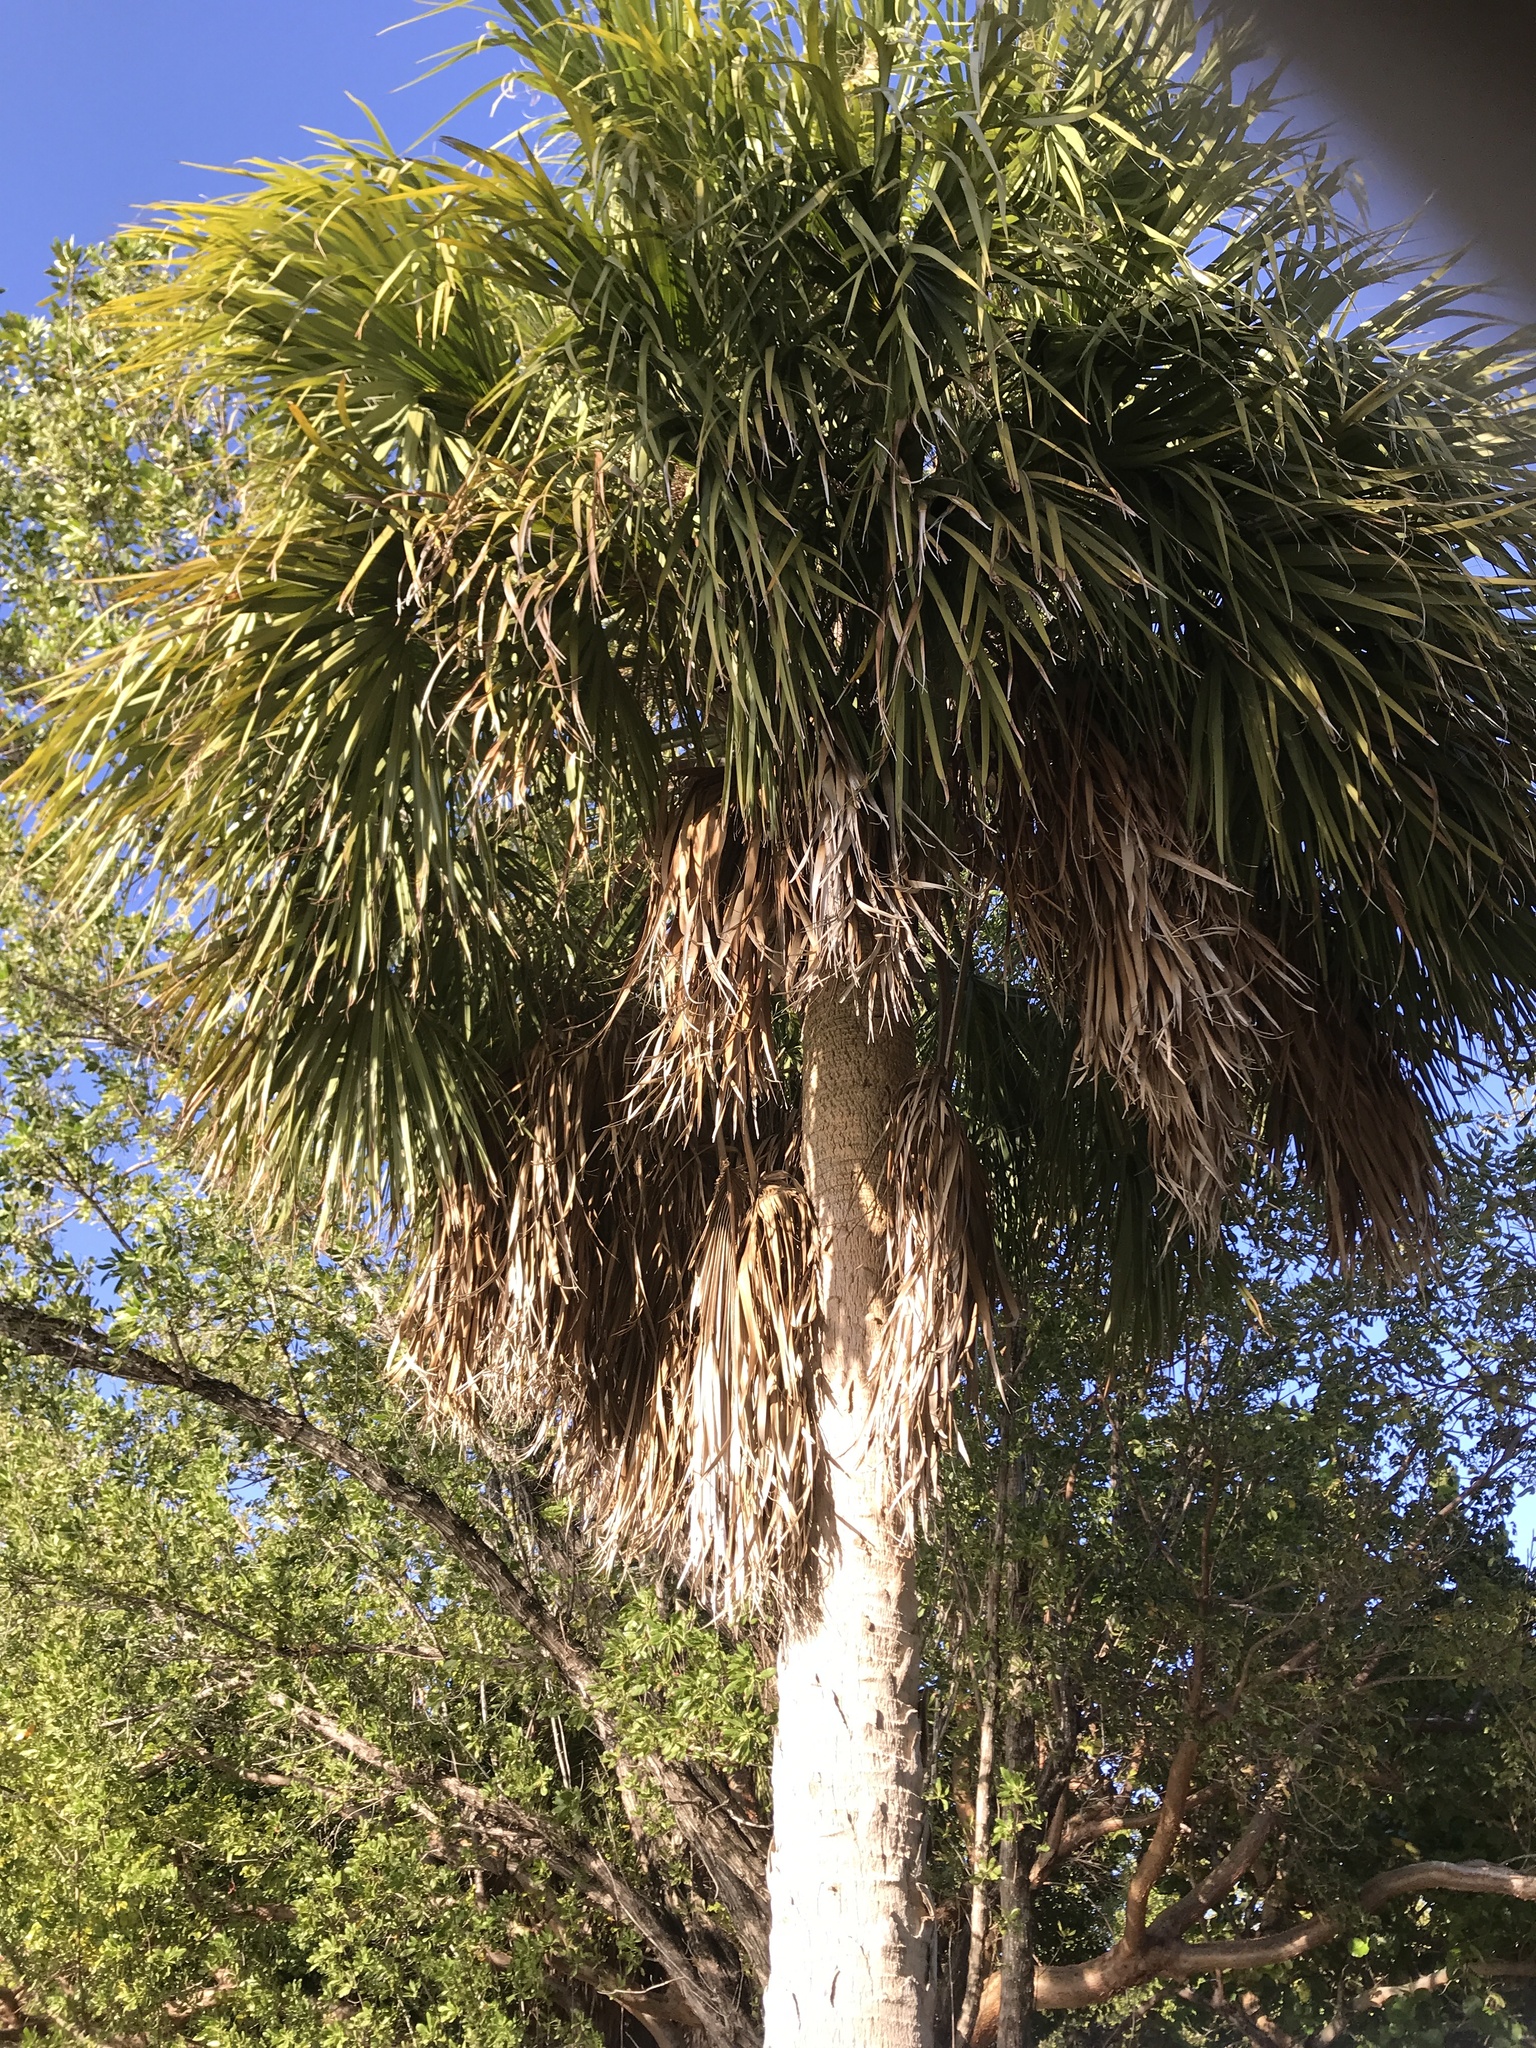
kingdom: Plantae
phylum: Tracheophyta
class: Liliopsida
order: Arecales
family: Arecaceae
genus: Sabal
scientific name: Sabal palmetto
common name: Blue palmetto
